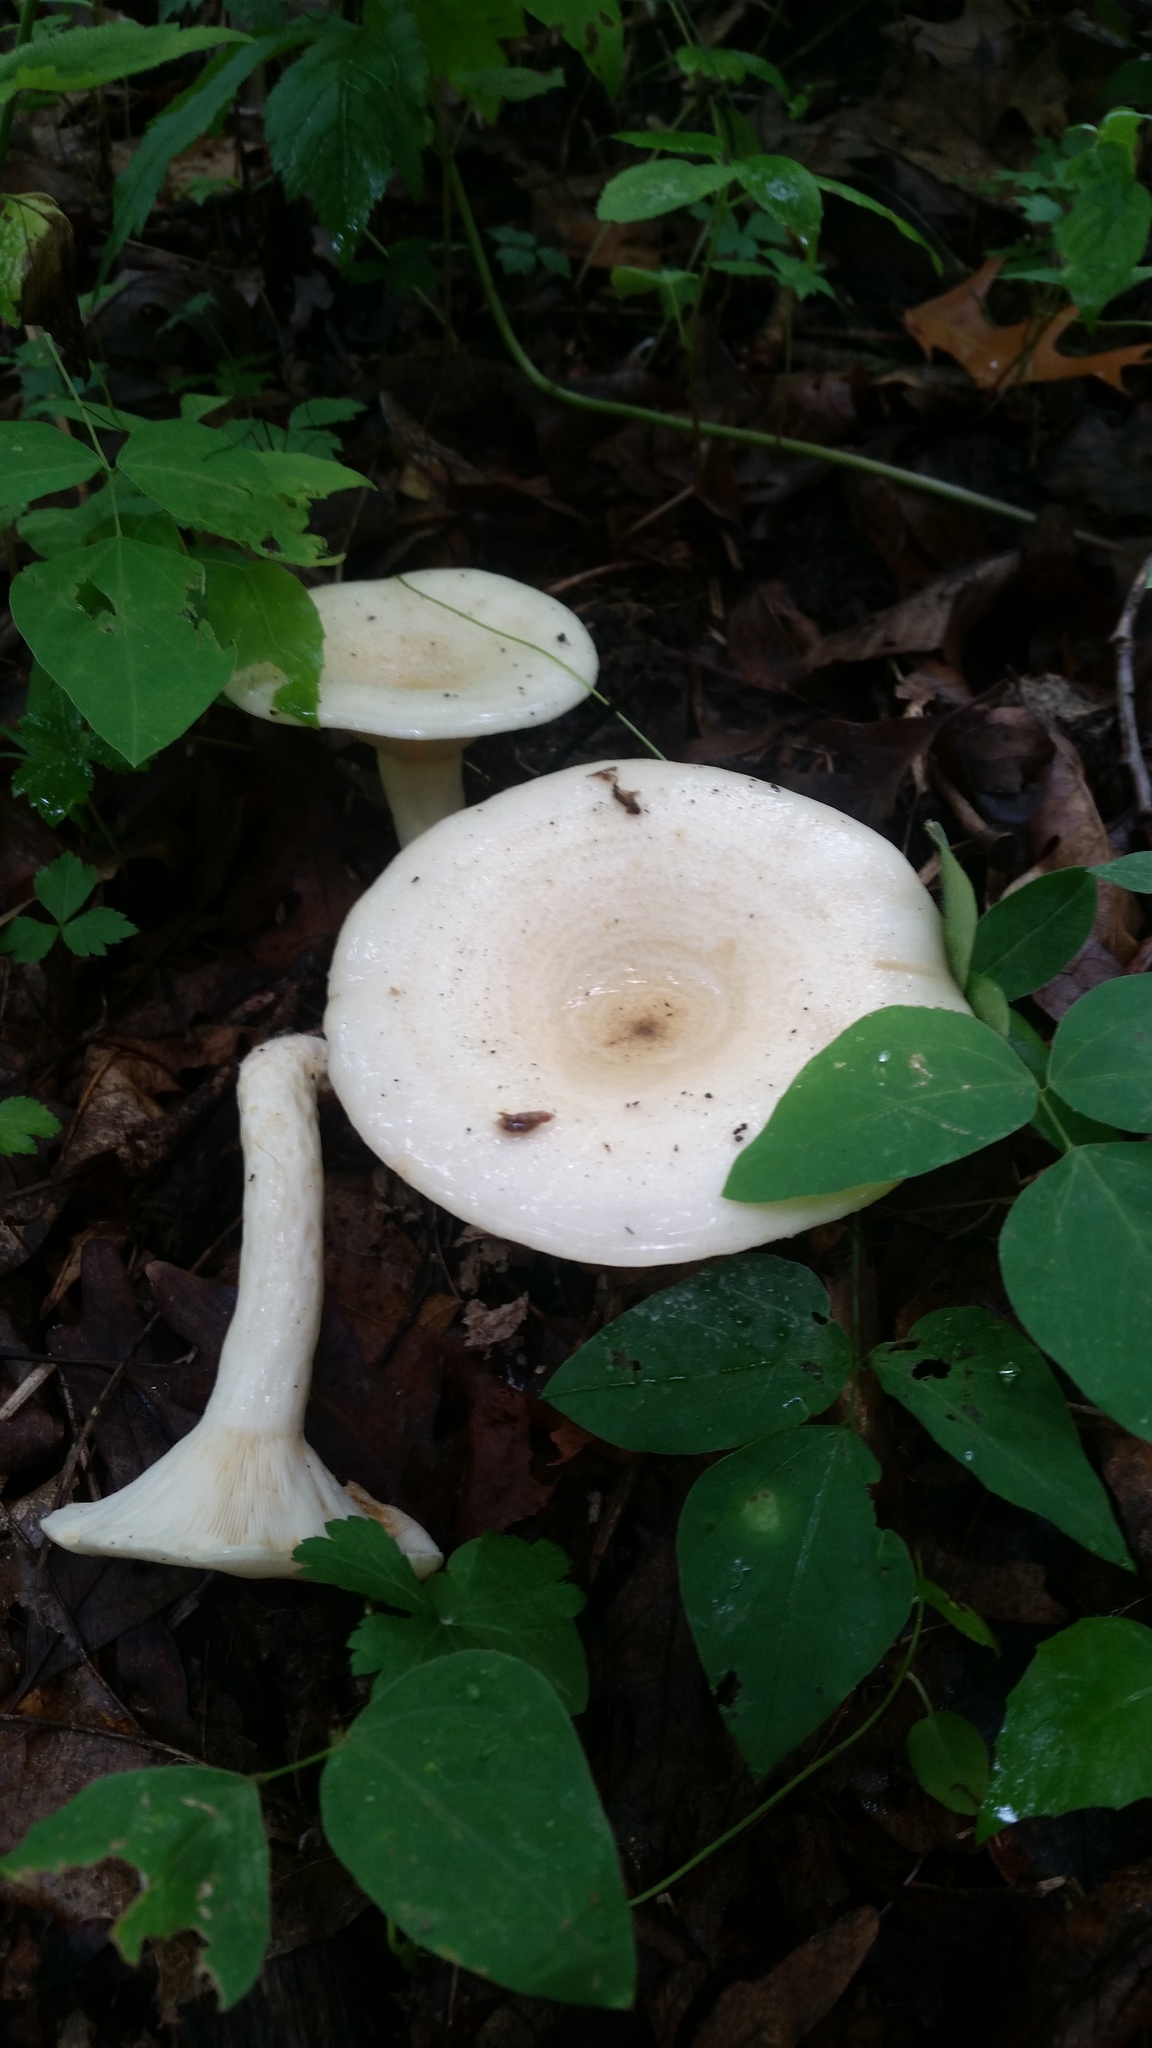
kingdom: Fungi
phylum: Basidiomycota
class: Agaricomycetes
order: Russulales
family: Russulaceae
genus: Lactarius
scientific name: Lactarius maculatipes
